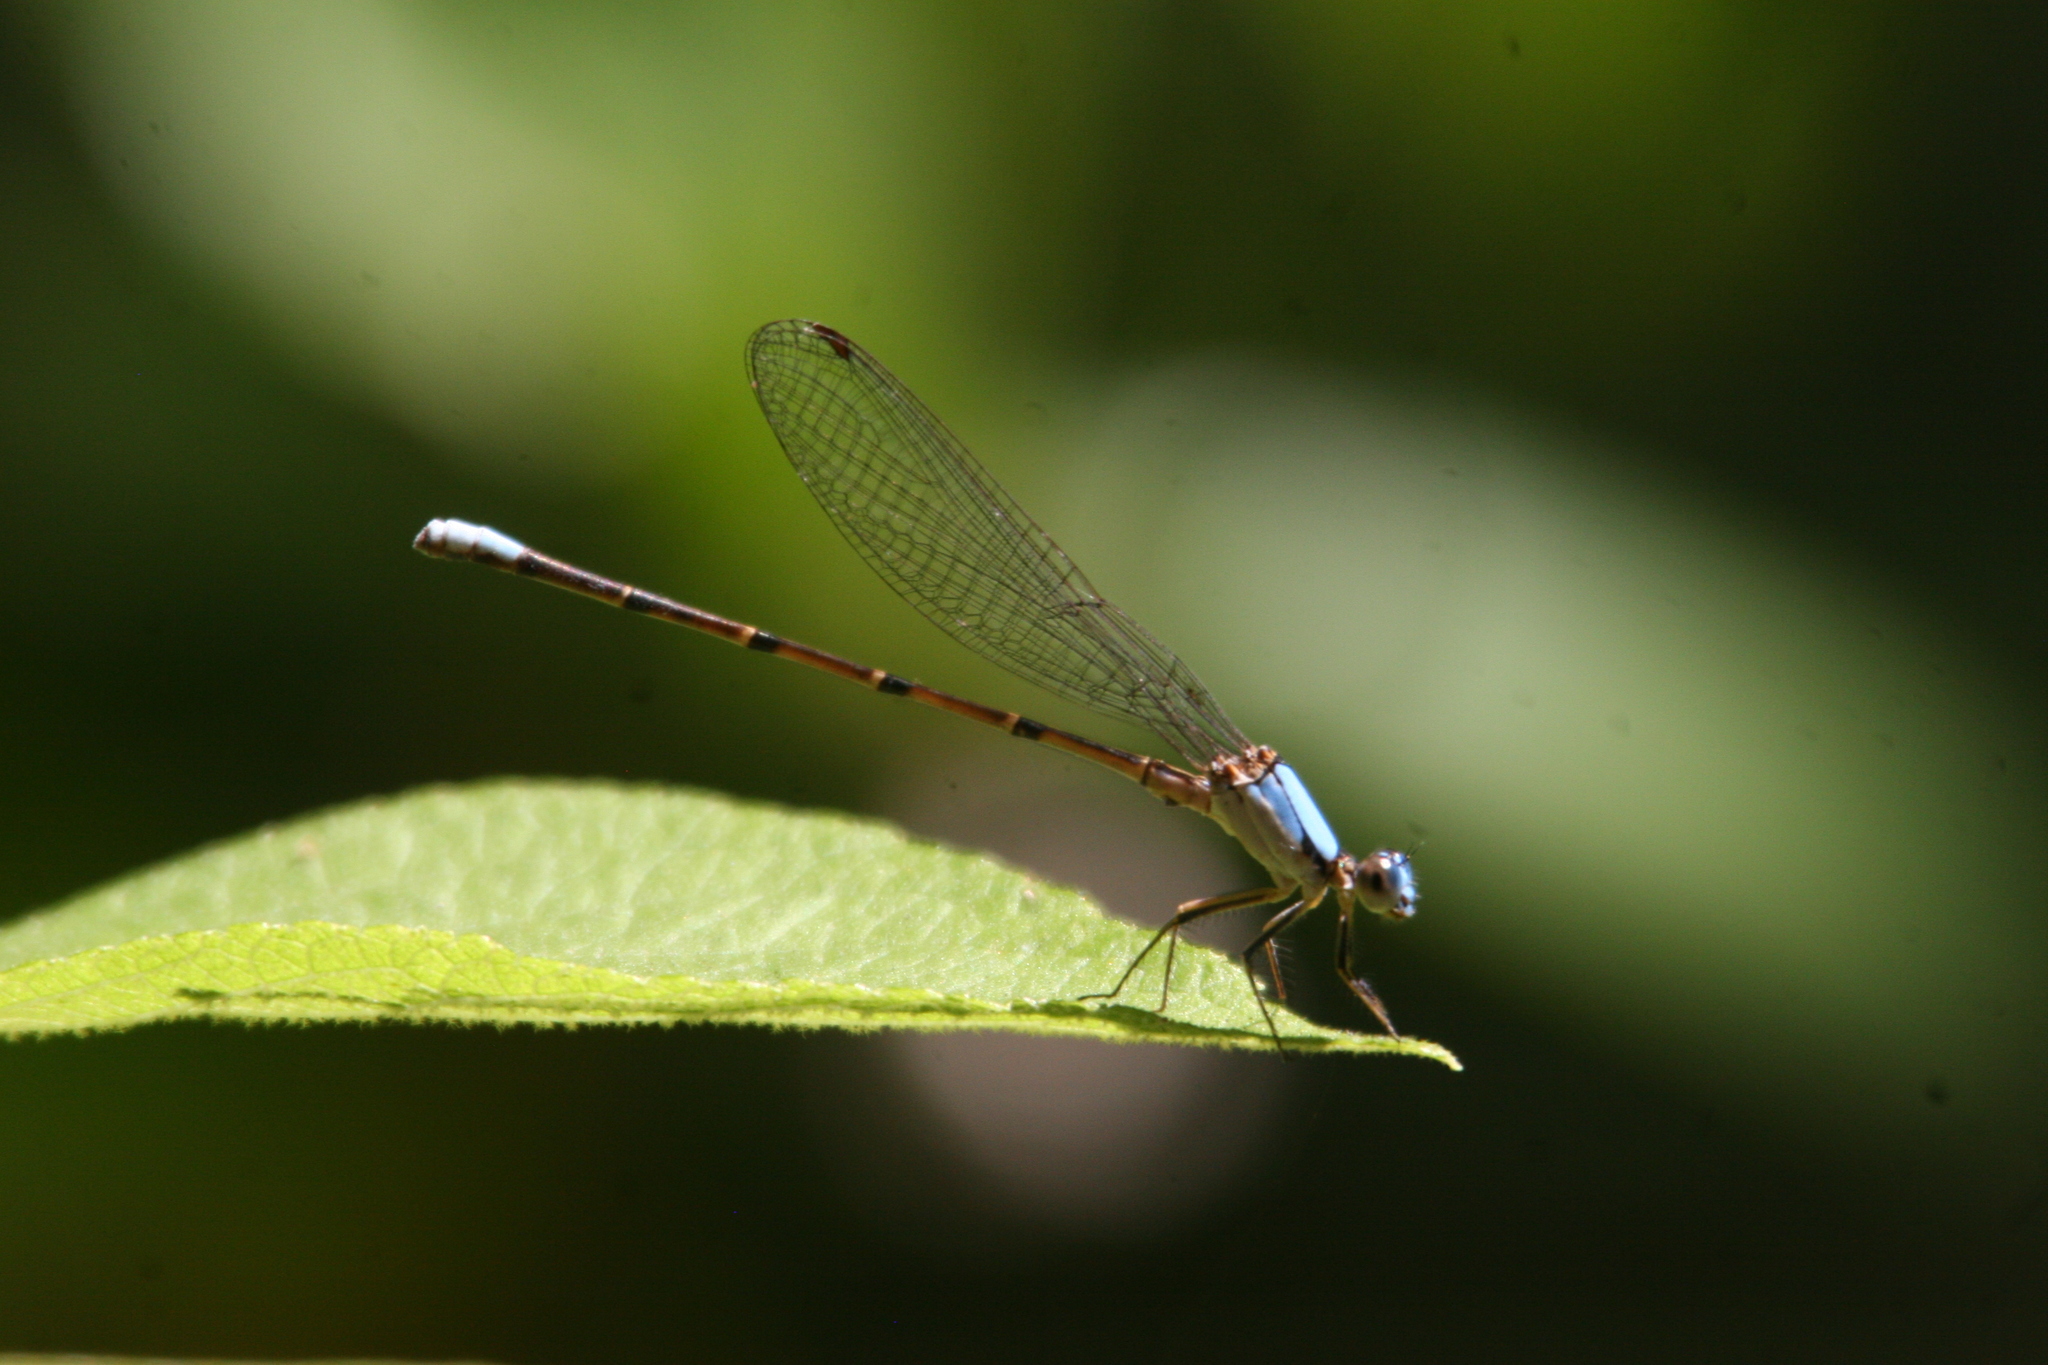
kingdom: Animalia
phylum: Arthropoda
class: Insecta
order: Odonata
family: Coenagrionidae
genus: Argia
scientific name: Argia apicalis
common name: Blue-fronted dancer
